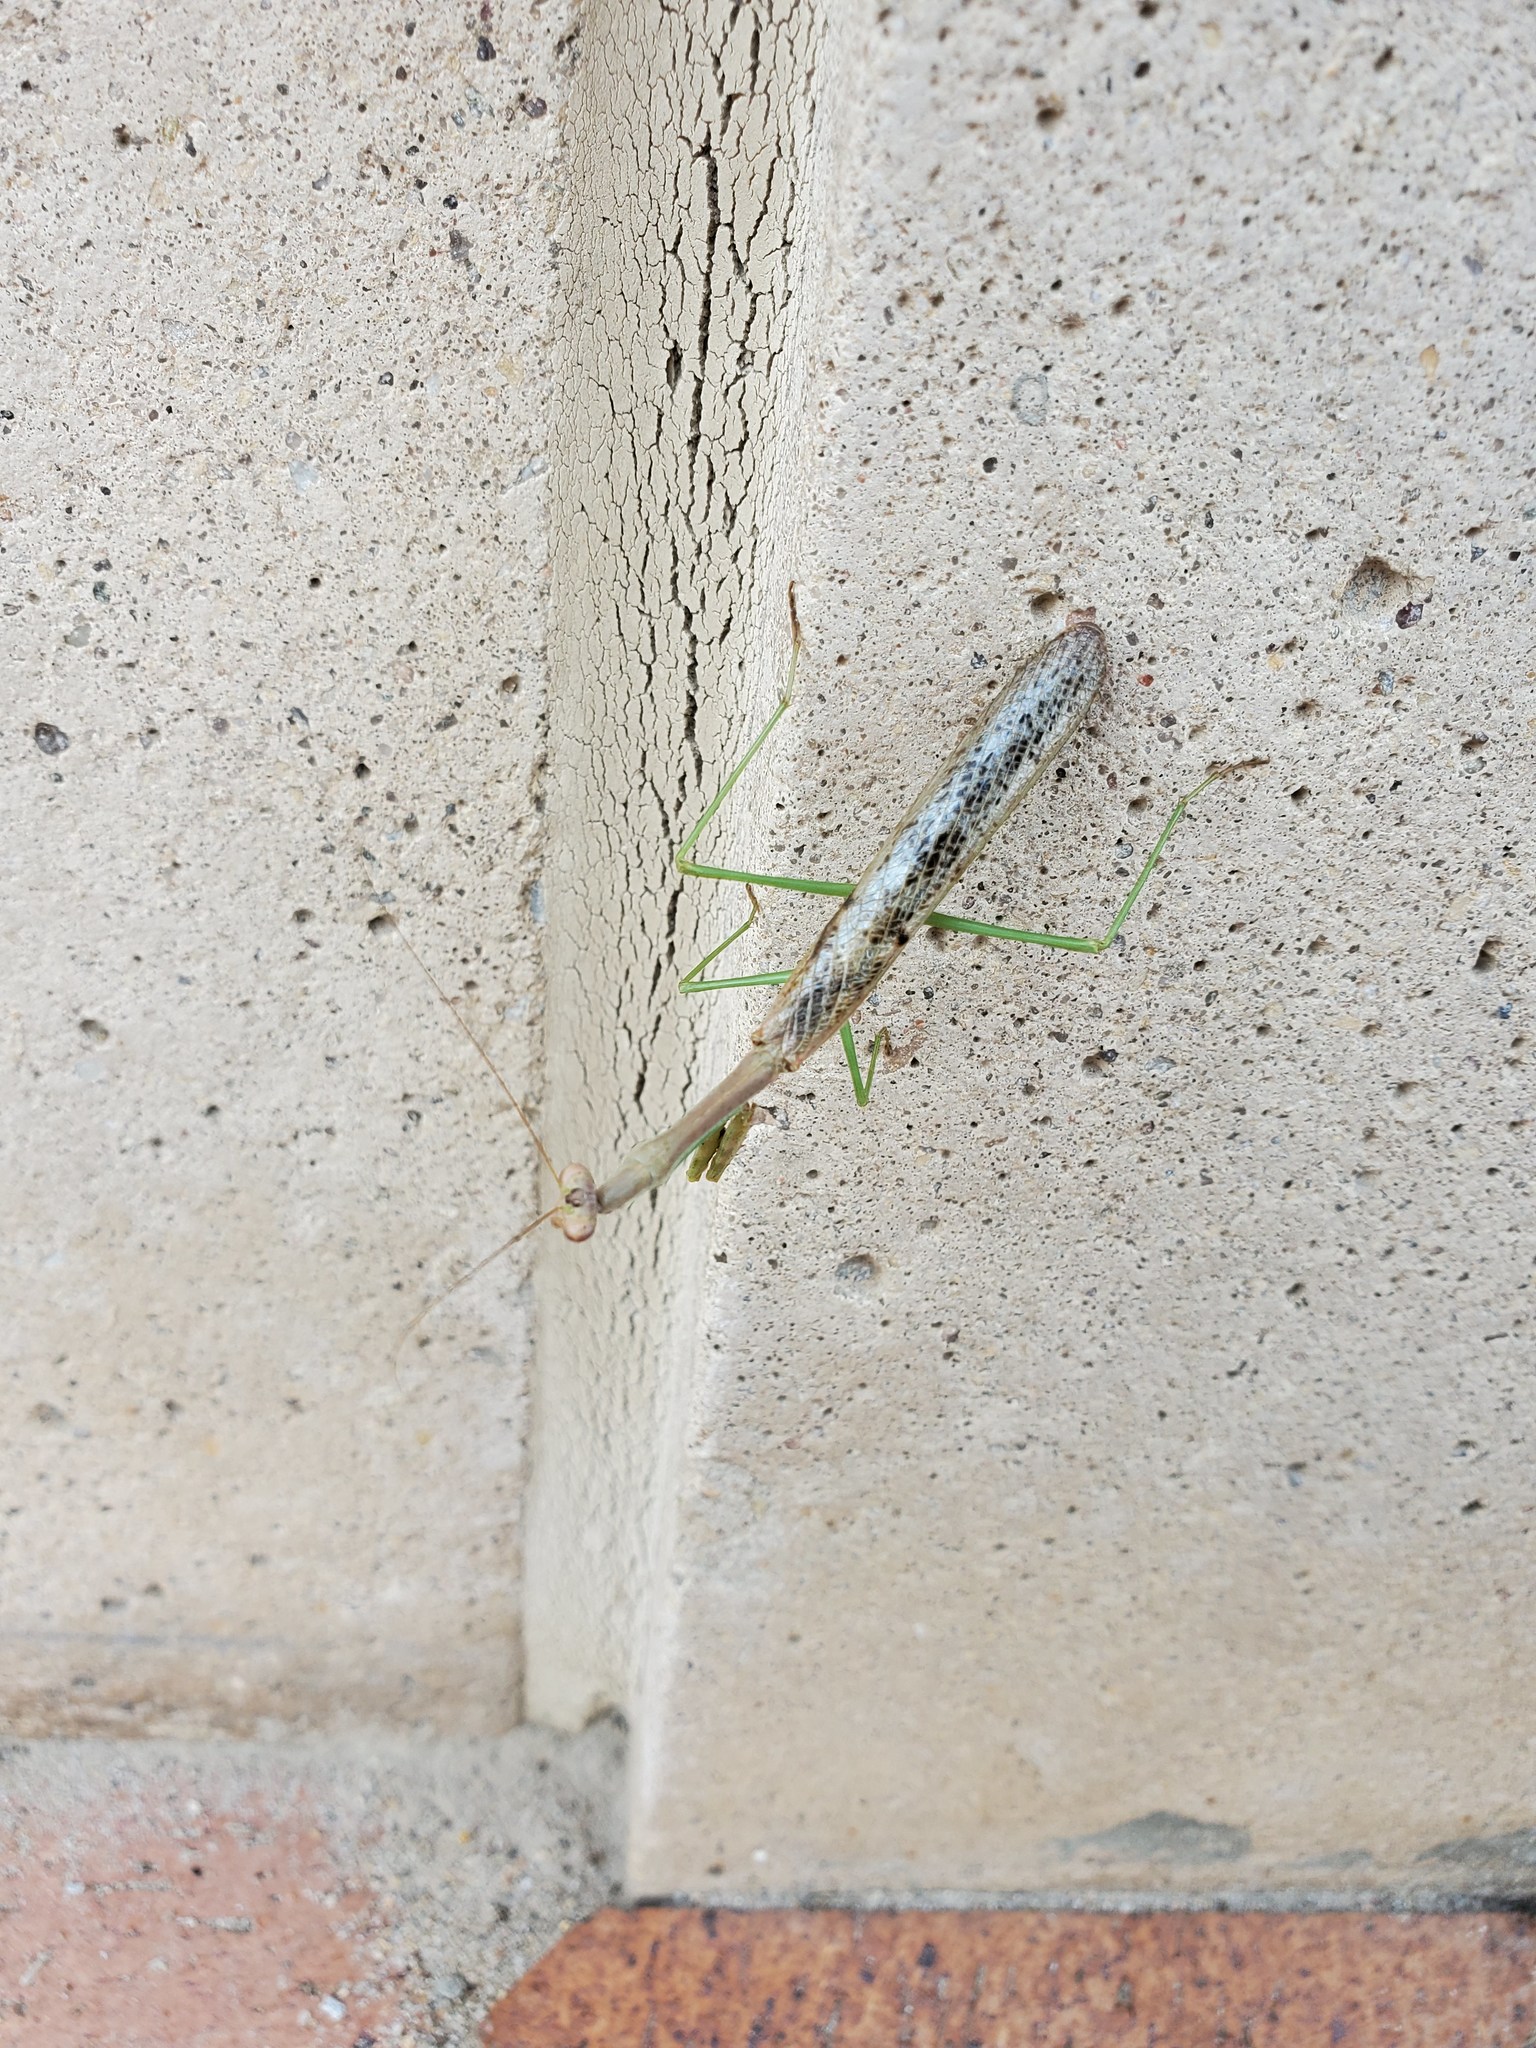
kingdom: Animalia
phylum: Arthropoda
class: Insecta
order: Mantodea
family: Mantidae
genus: Stagmomantis
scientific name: Stagmomantis carolina
